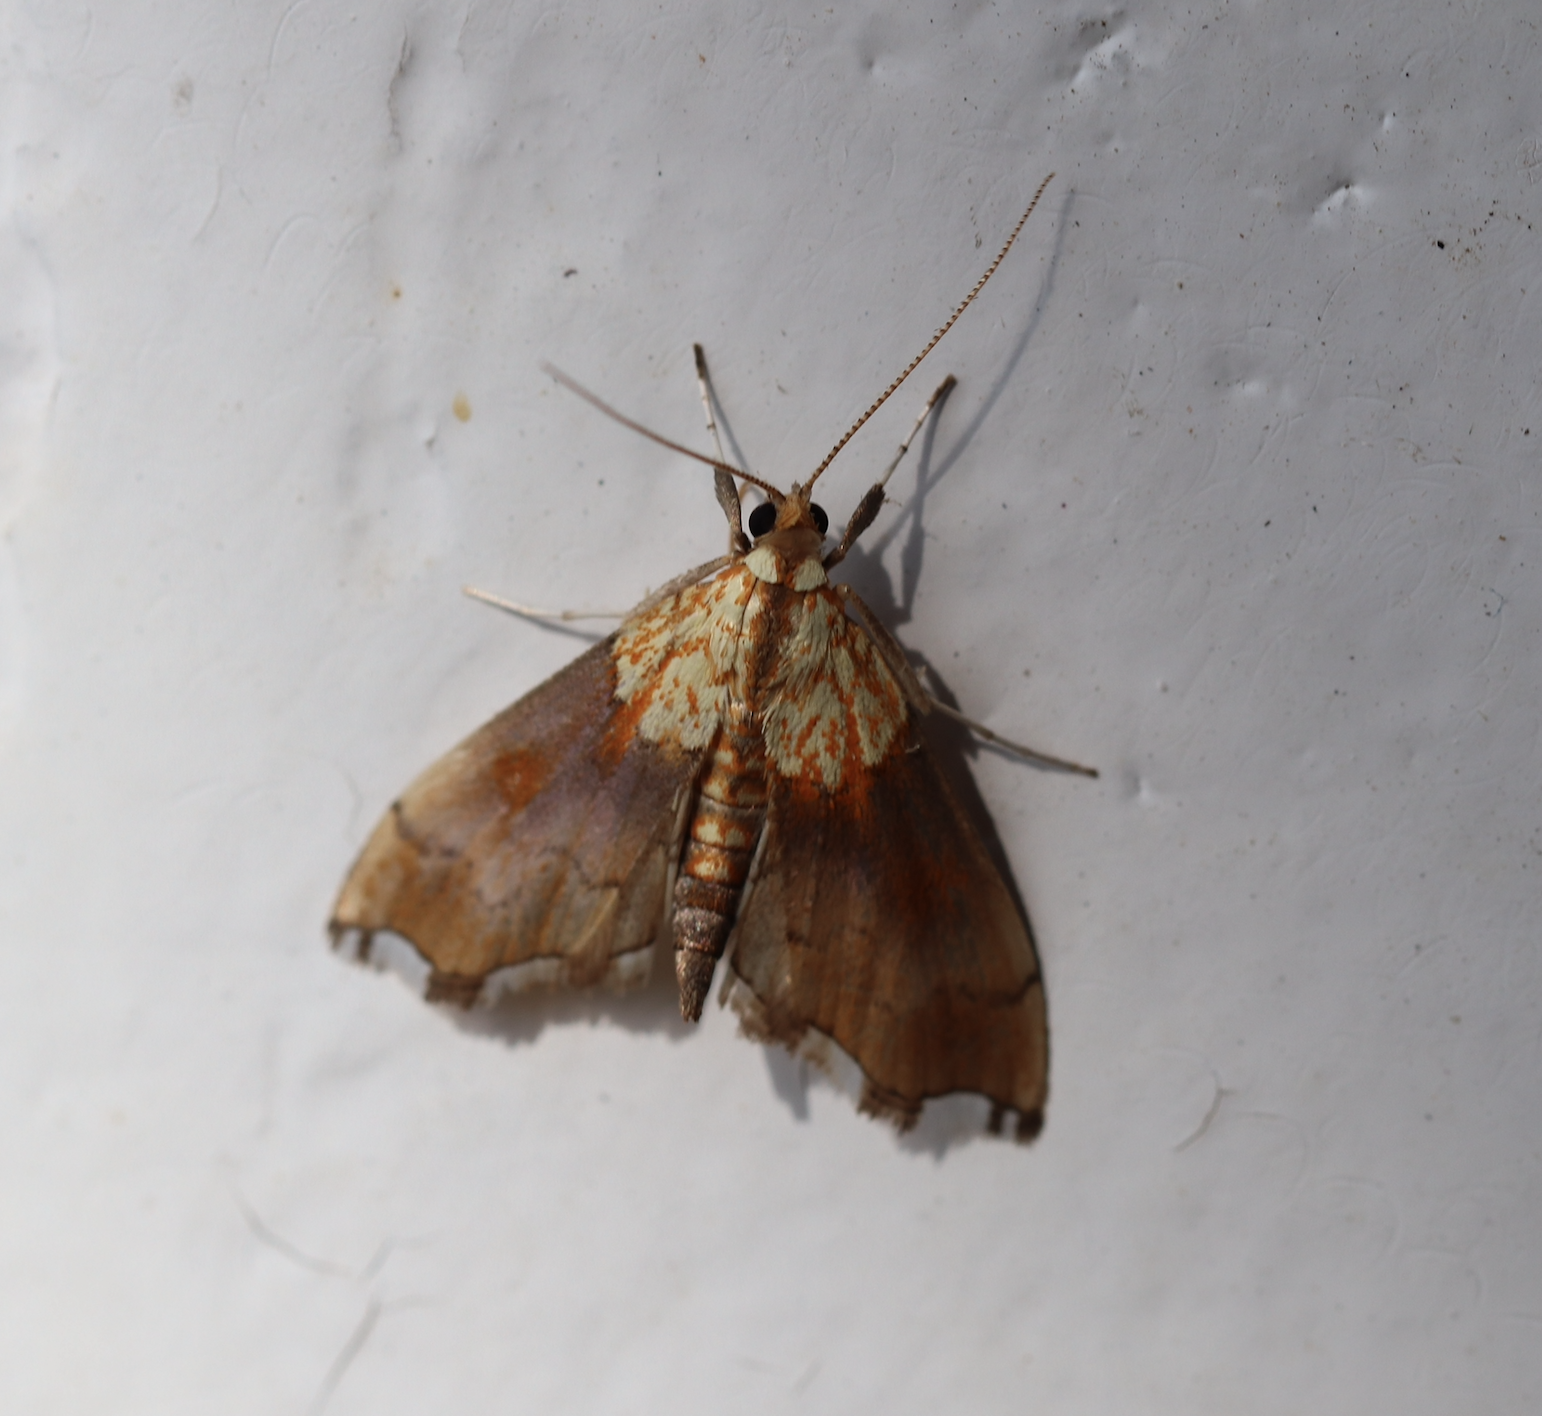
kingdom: Animalia
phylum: Arthropoda
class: Insecta
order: Lepidoptera
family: Crambidae
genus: Agrotera
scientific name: Agrotera nemoralis
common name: Beautiful pearl
